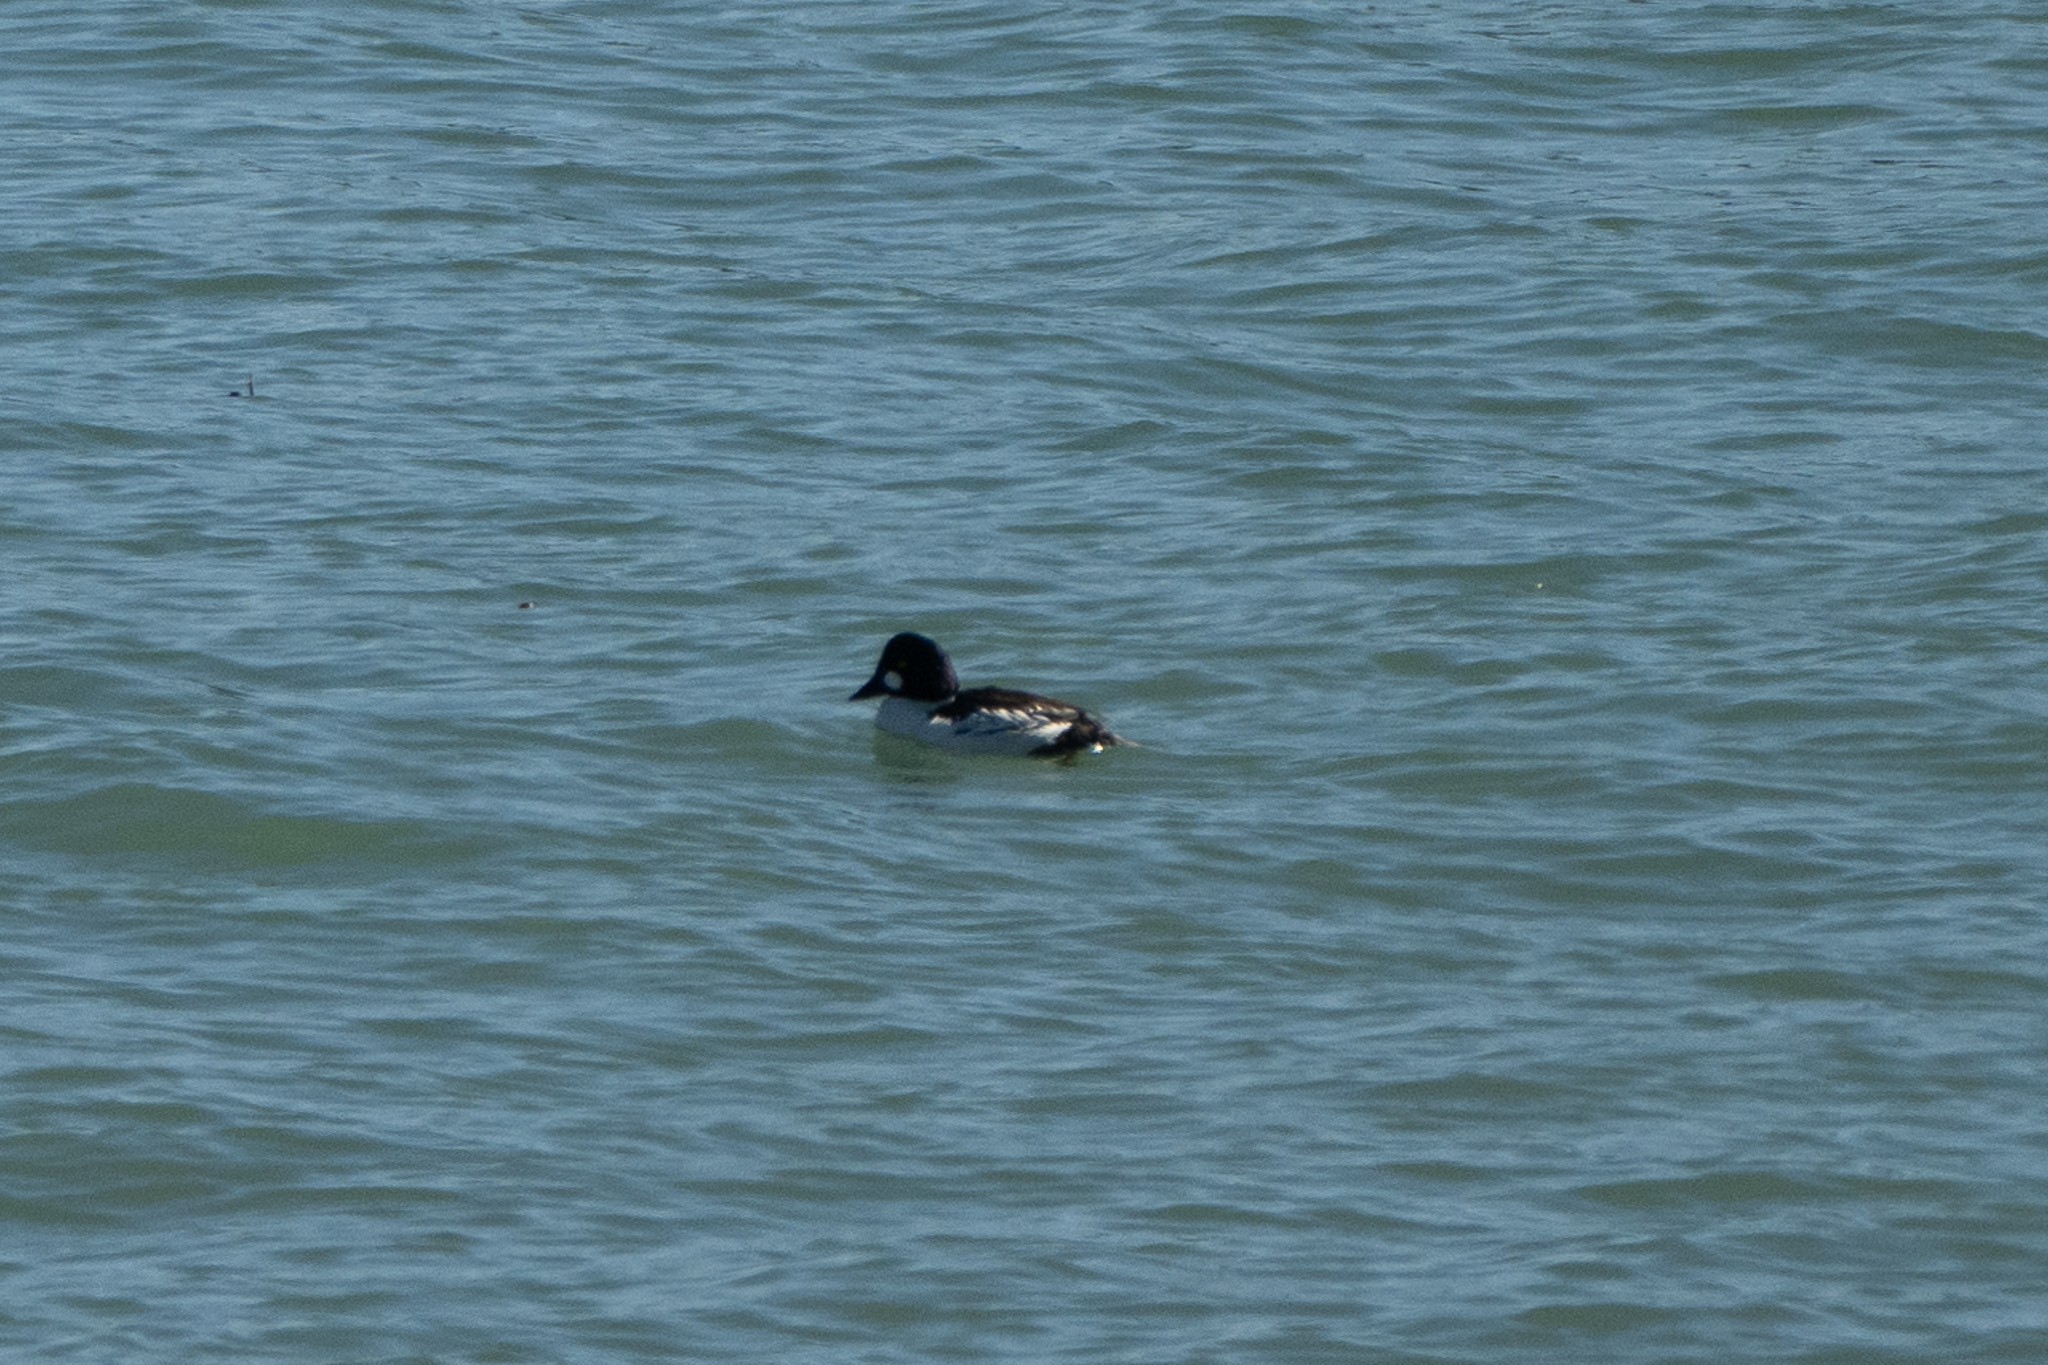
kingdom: Animalia
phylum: Chordata
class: Aves
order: Anseriformes
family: Anatidae
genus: Bucephala
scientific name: Bucephala clangula
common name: Common goldeneye
